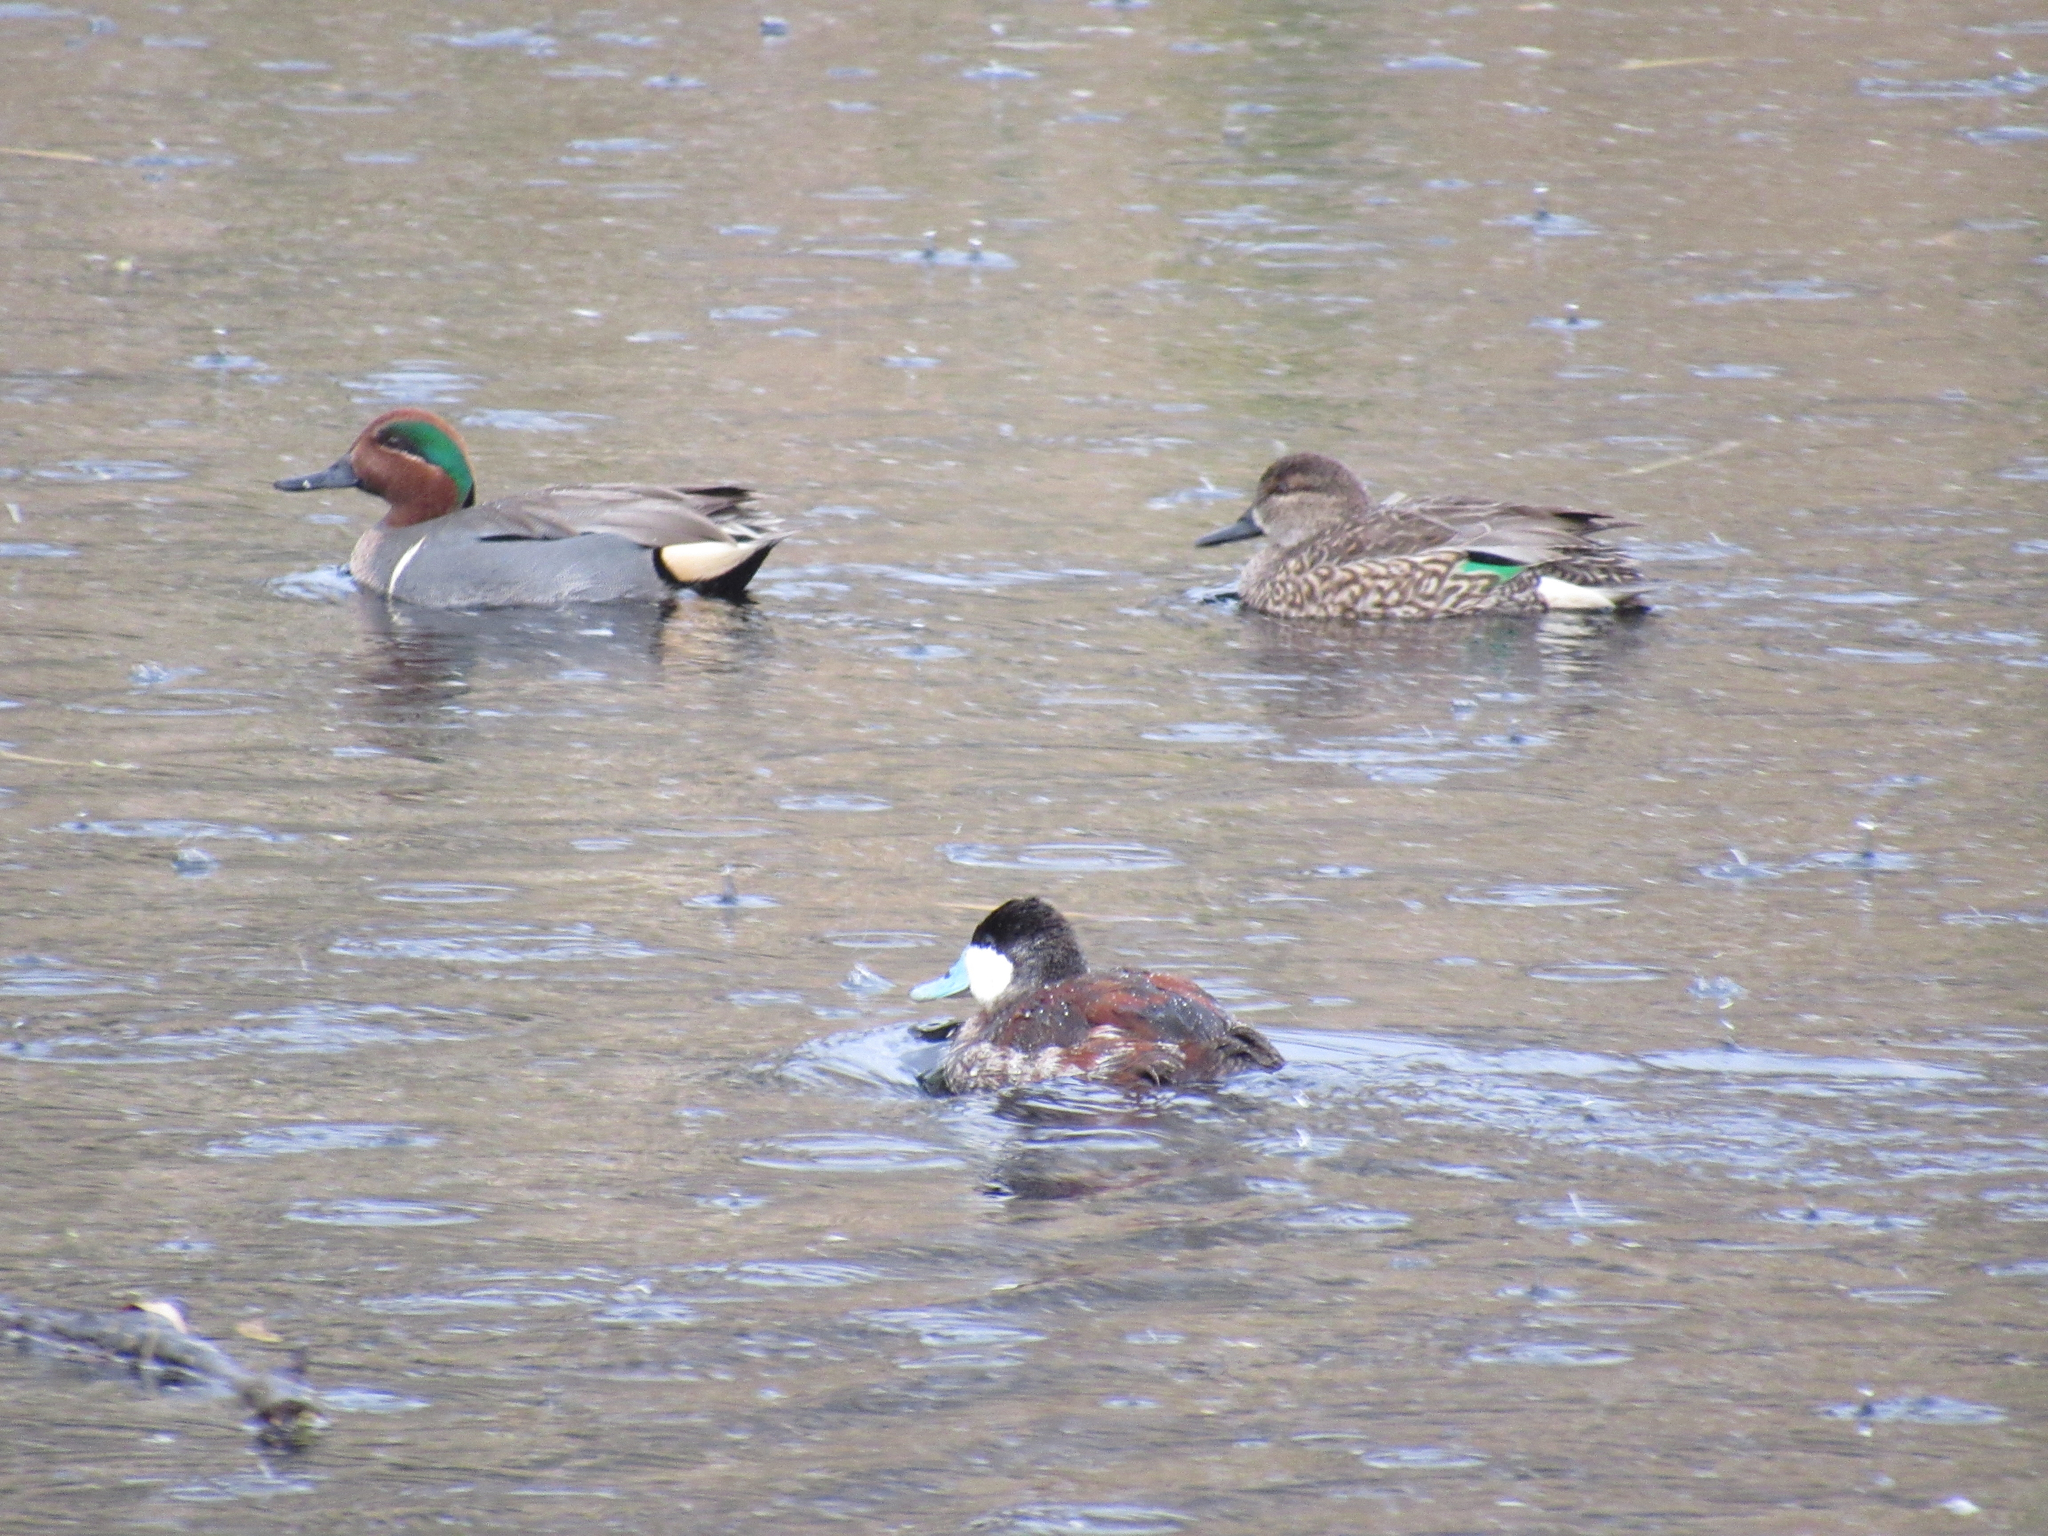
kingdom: Animalia
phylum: Chordata
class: Aves
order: Anseriformes
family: Anatidae
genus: Anas
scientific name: Anas carolinensis
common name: Green-winged teal
